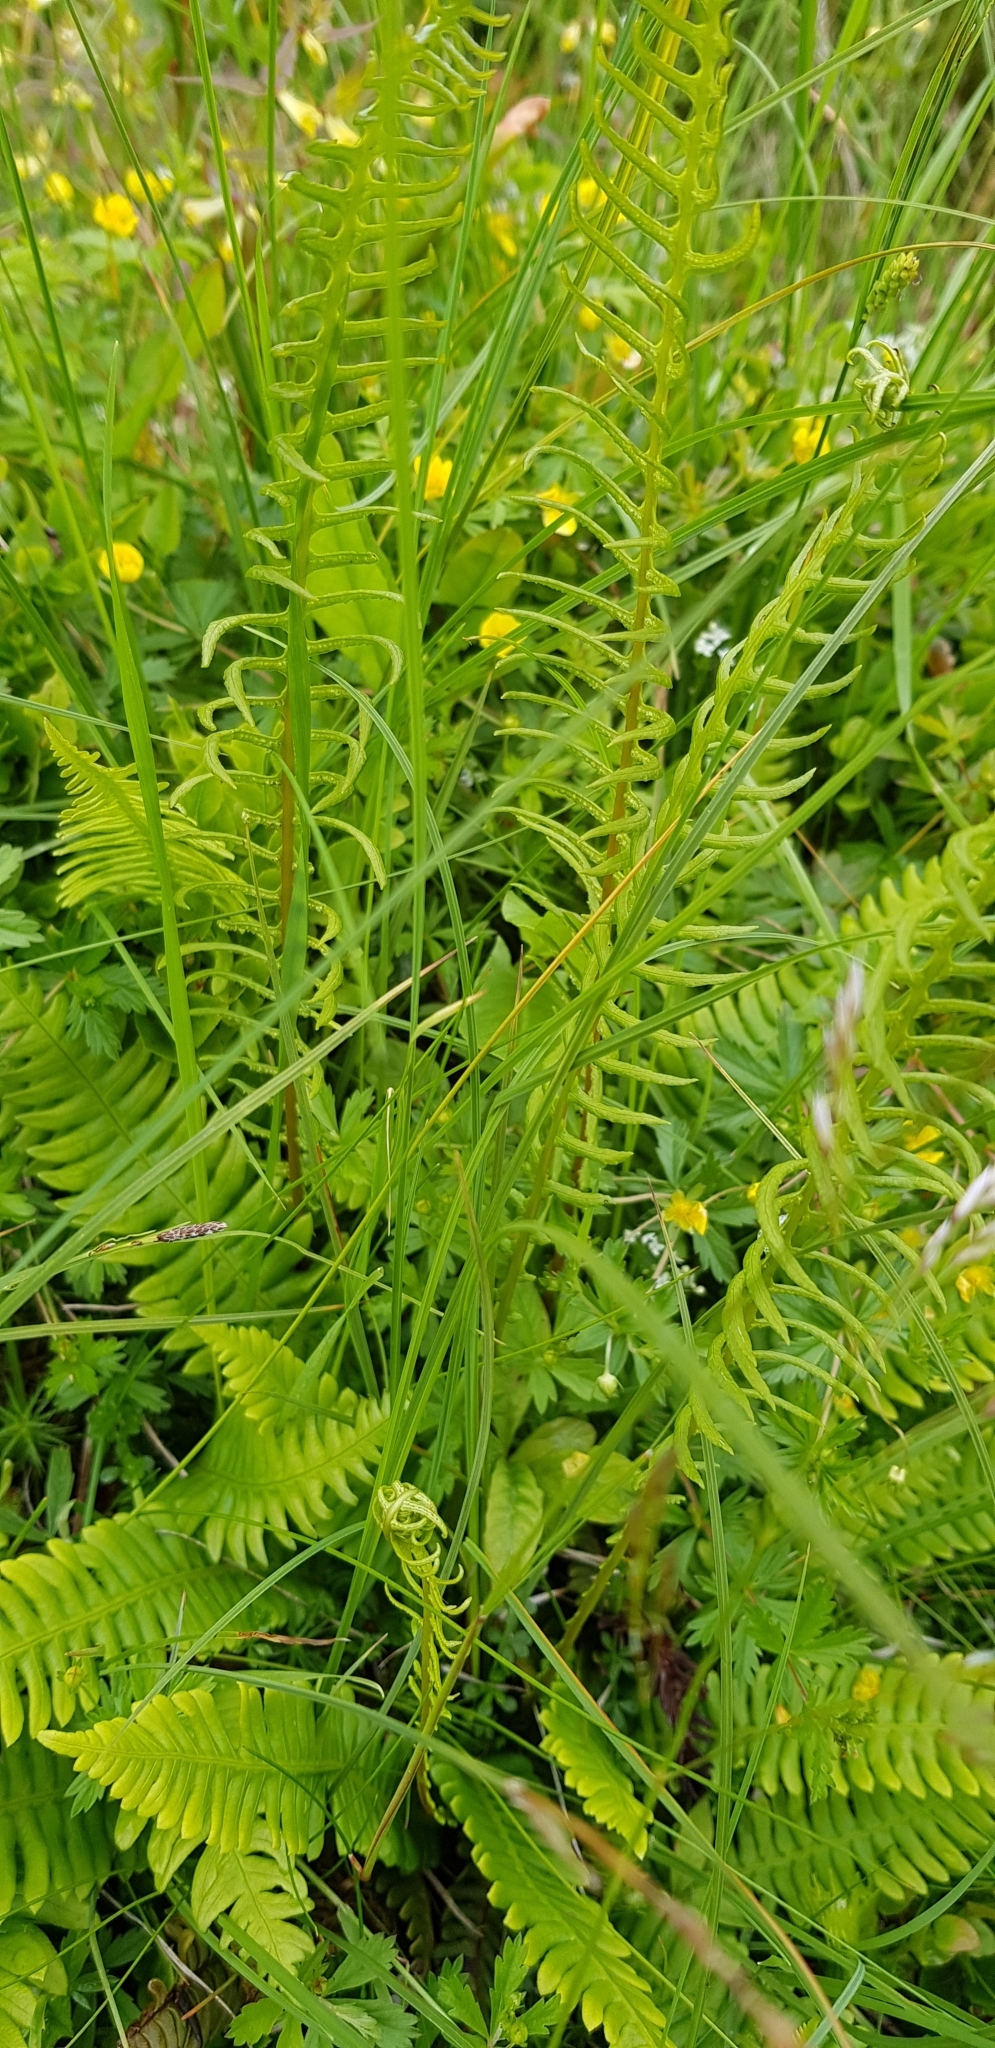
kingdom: Plantae
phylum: Tracheophyta
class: Polypodiopsida
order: Polypodiales
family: Blechnaceae
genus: Struthiopteris
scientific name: Struthiopteris spicant
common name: Deer fern
